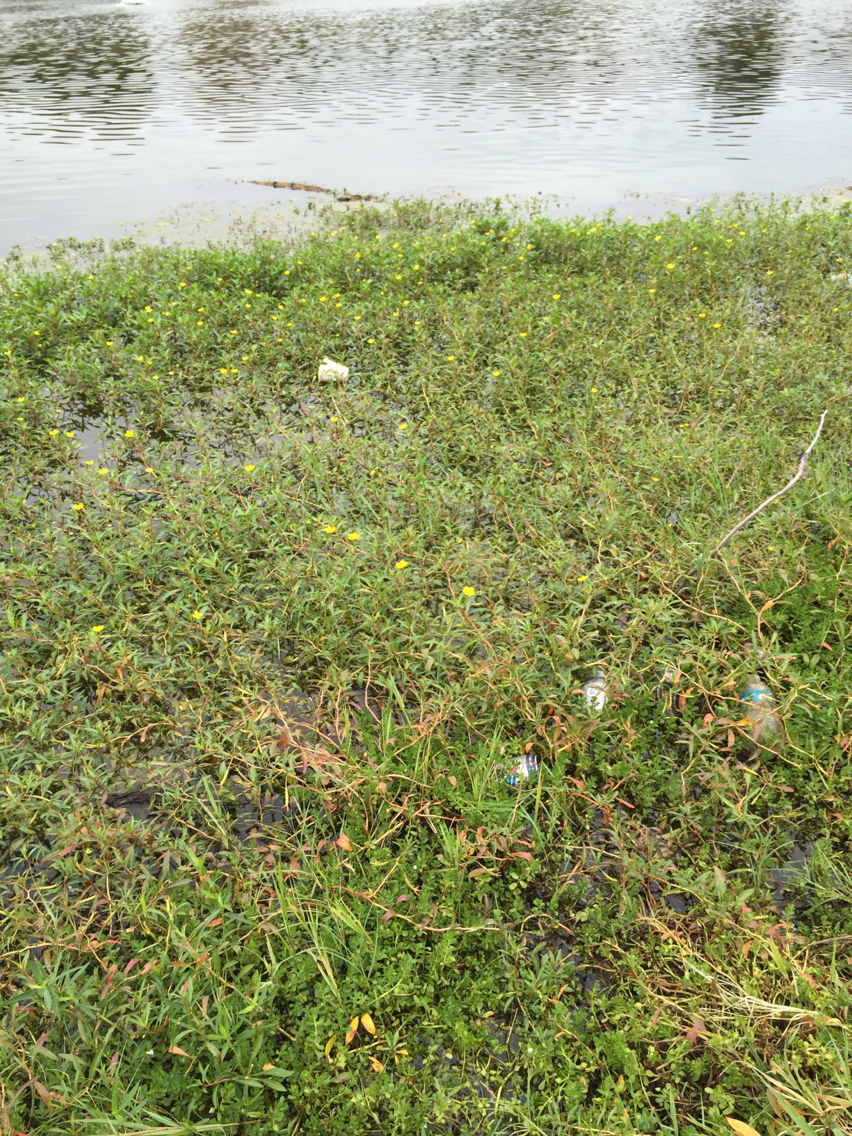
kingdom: Plantae
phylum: Tracheophyta
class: Magnoliopsida
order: Myrtales
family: Onagraceae
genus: Ludwigia
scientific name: Ludwigia peploides
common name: Floating primrose-willow
